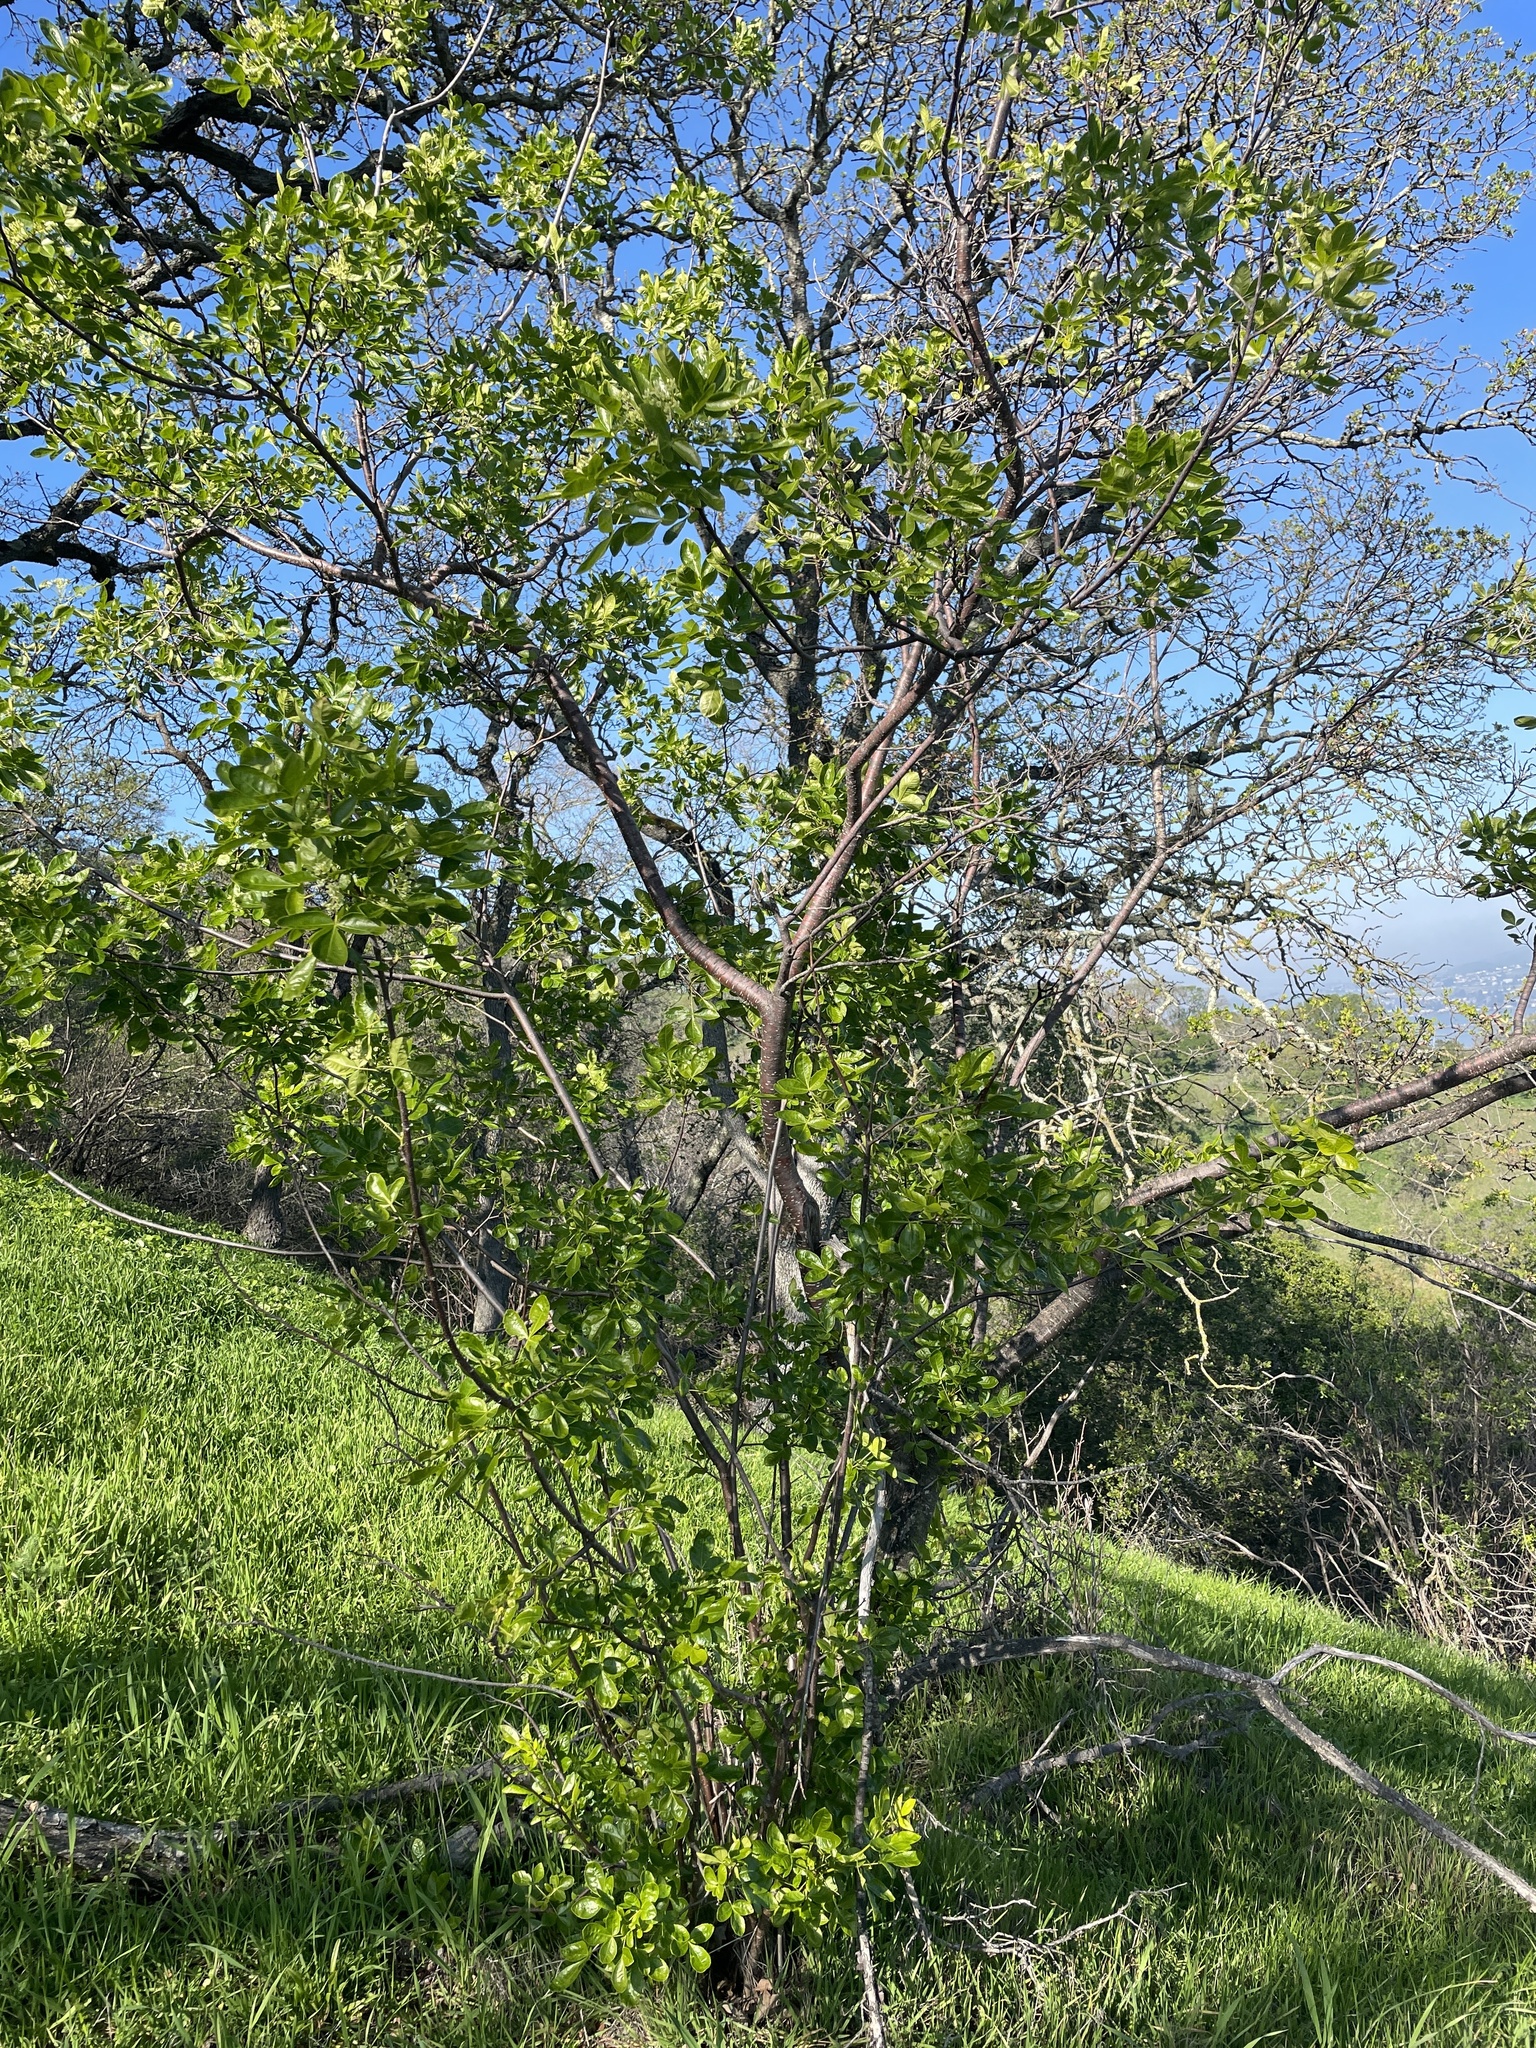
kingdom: Plantae
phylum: Tracheophyta
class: Magnoliopsida
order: Sapindales
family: Rutaceae
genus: Ptelea
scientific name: Ptelea crenulata
